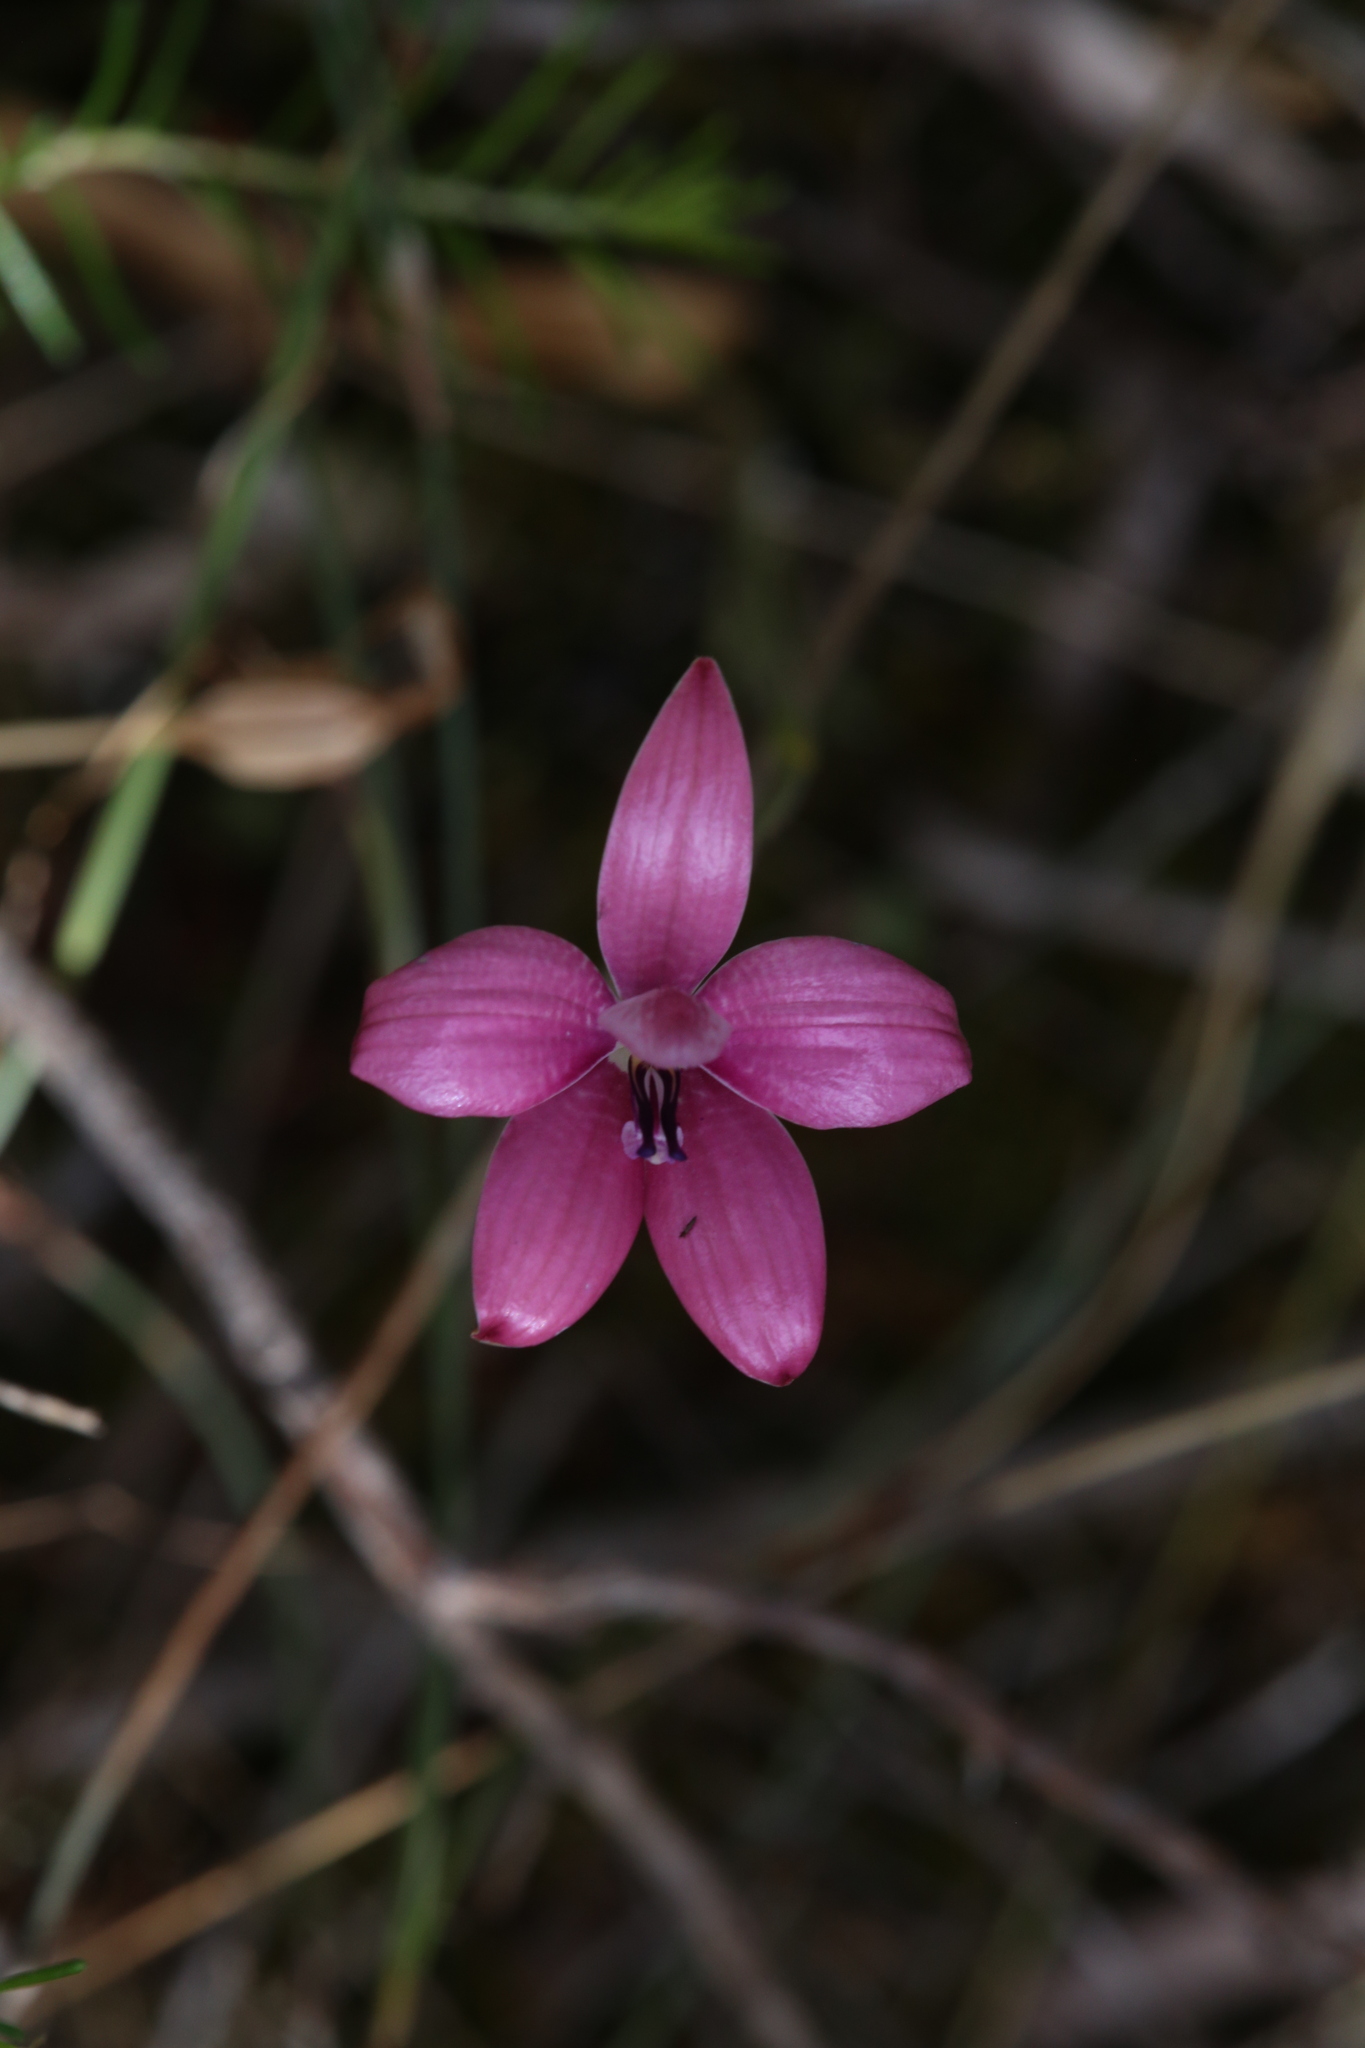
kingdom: Plantae
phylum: Tracheophyta
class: Liliopsida
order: Asparagales
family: Orchidaceae
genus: Caladenia
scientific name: Caladenia emarginata
